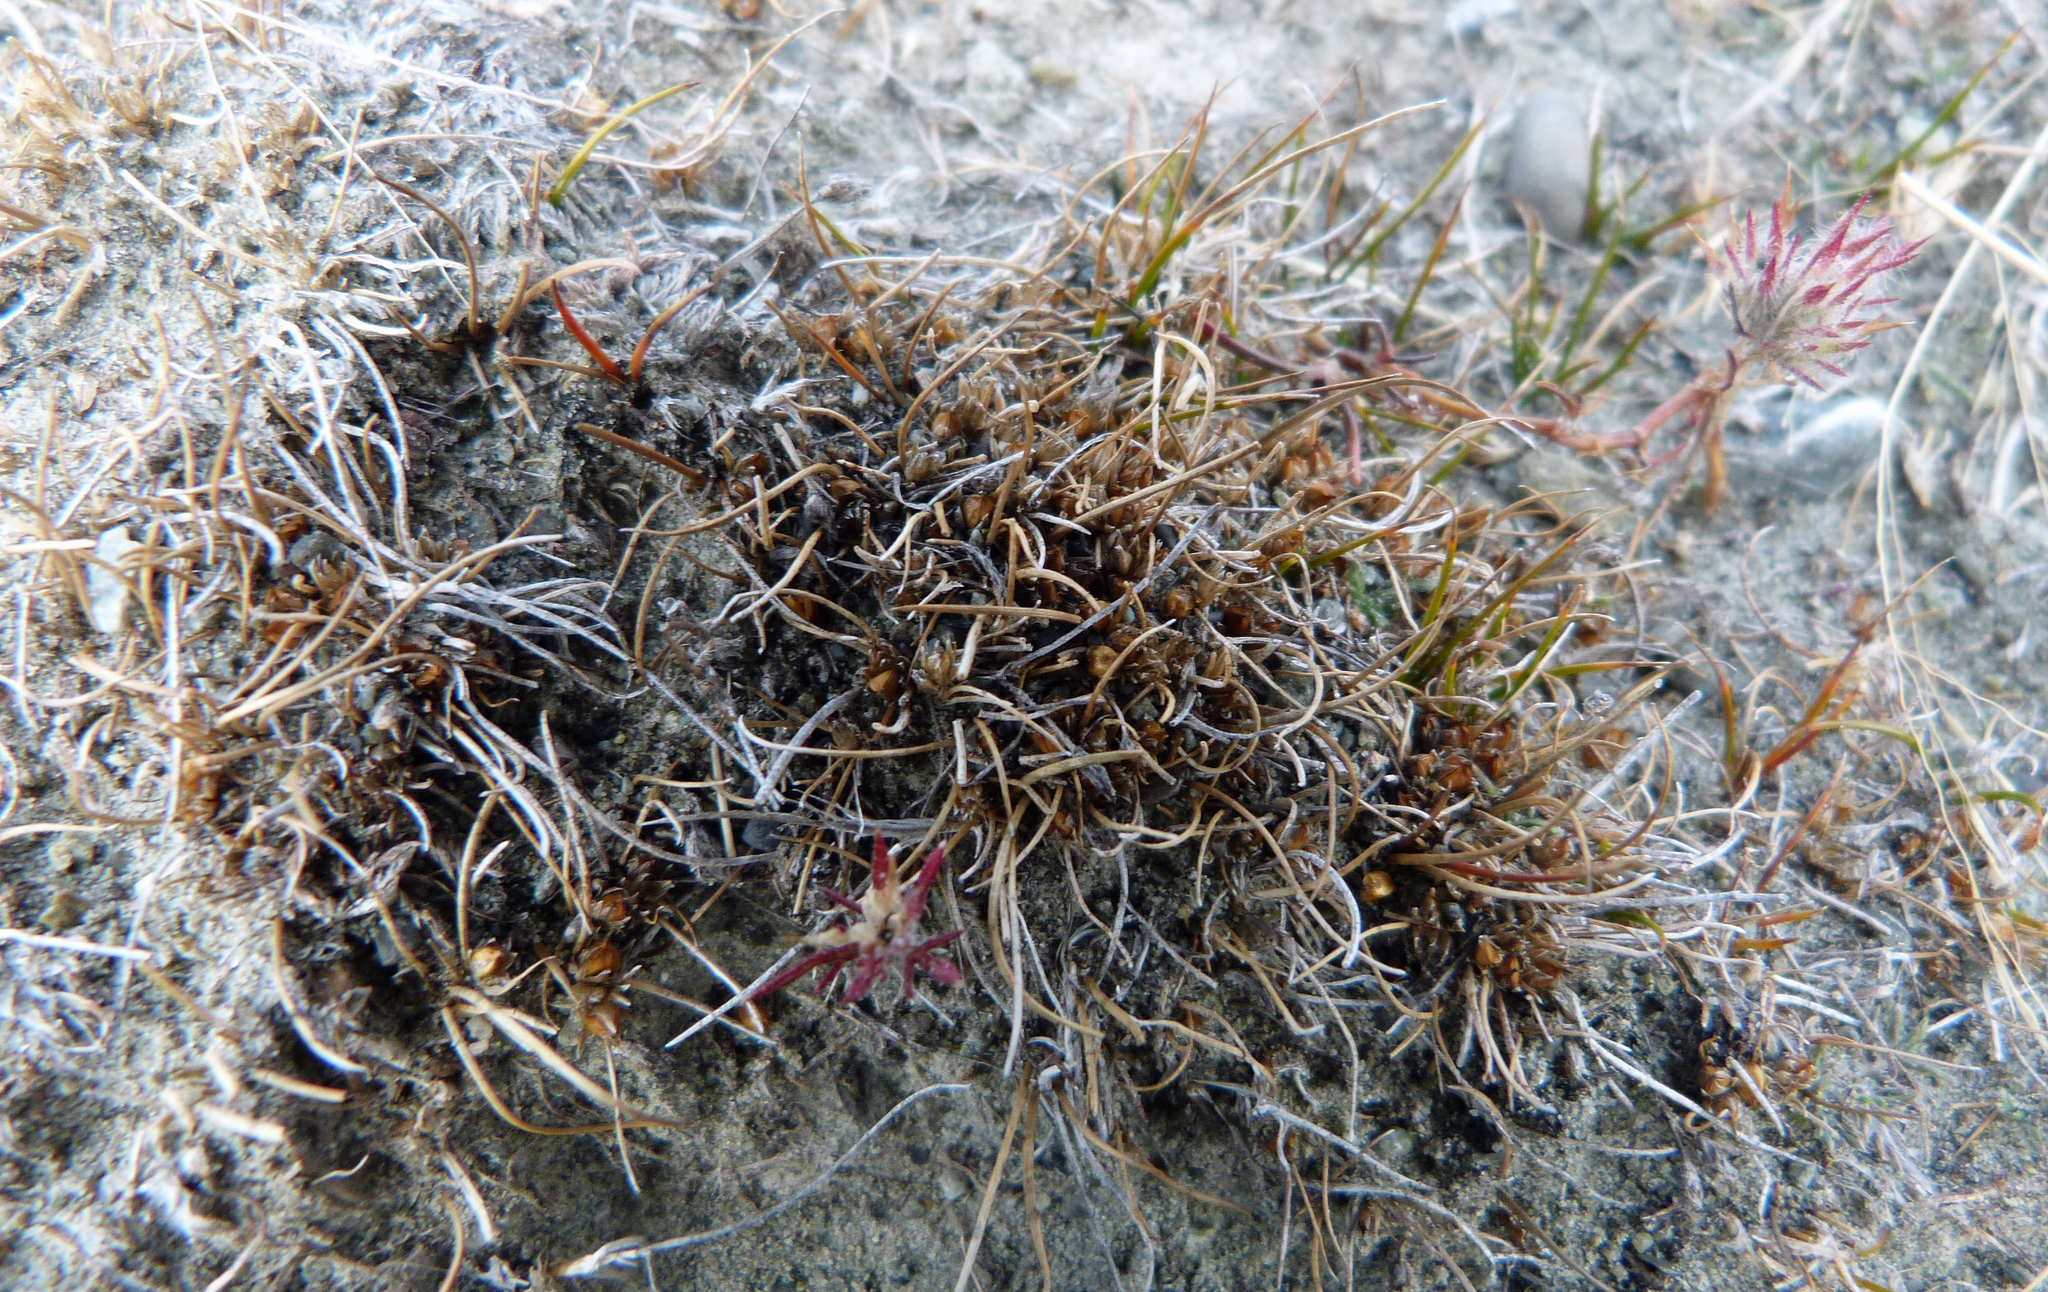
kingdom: Plantae
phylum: Tracheophyta
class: Liliopsida
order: Poales
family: Cyperaceae
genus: Isolepis
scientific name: Isolepis basilaris
